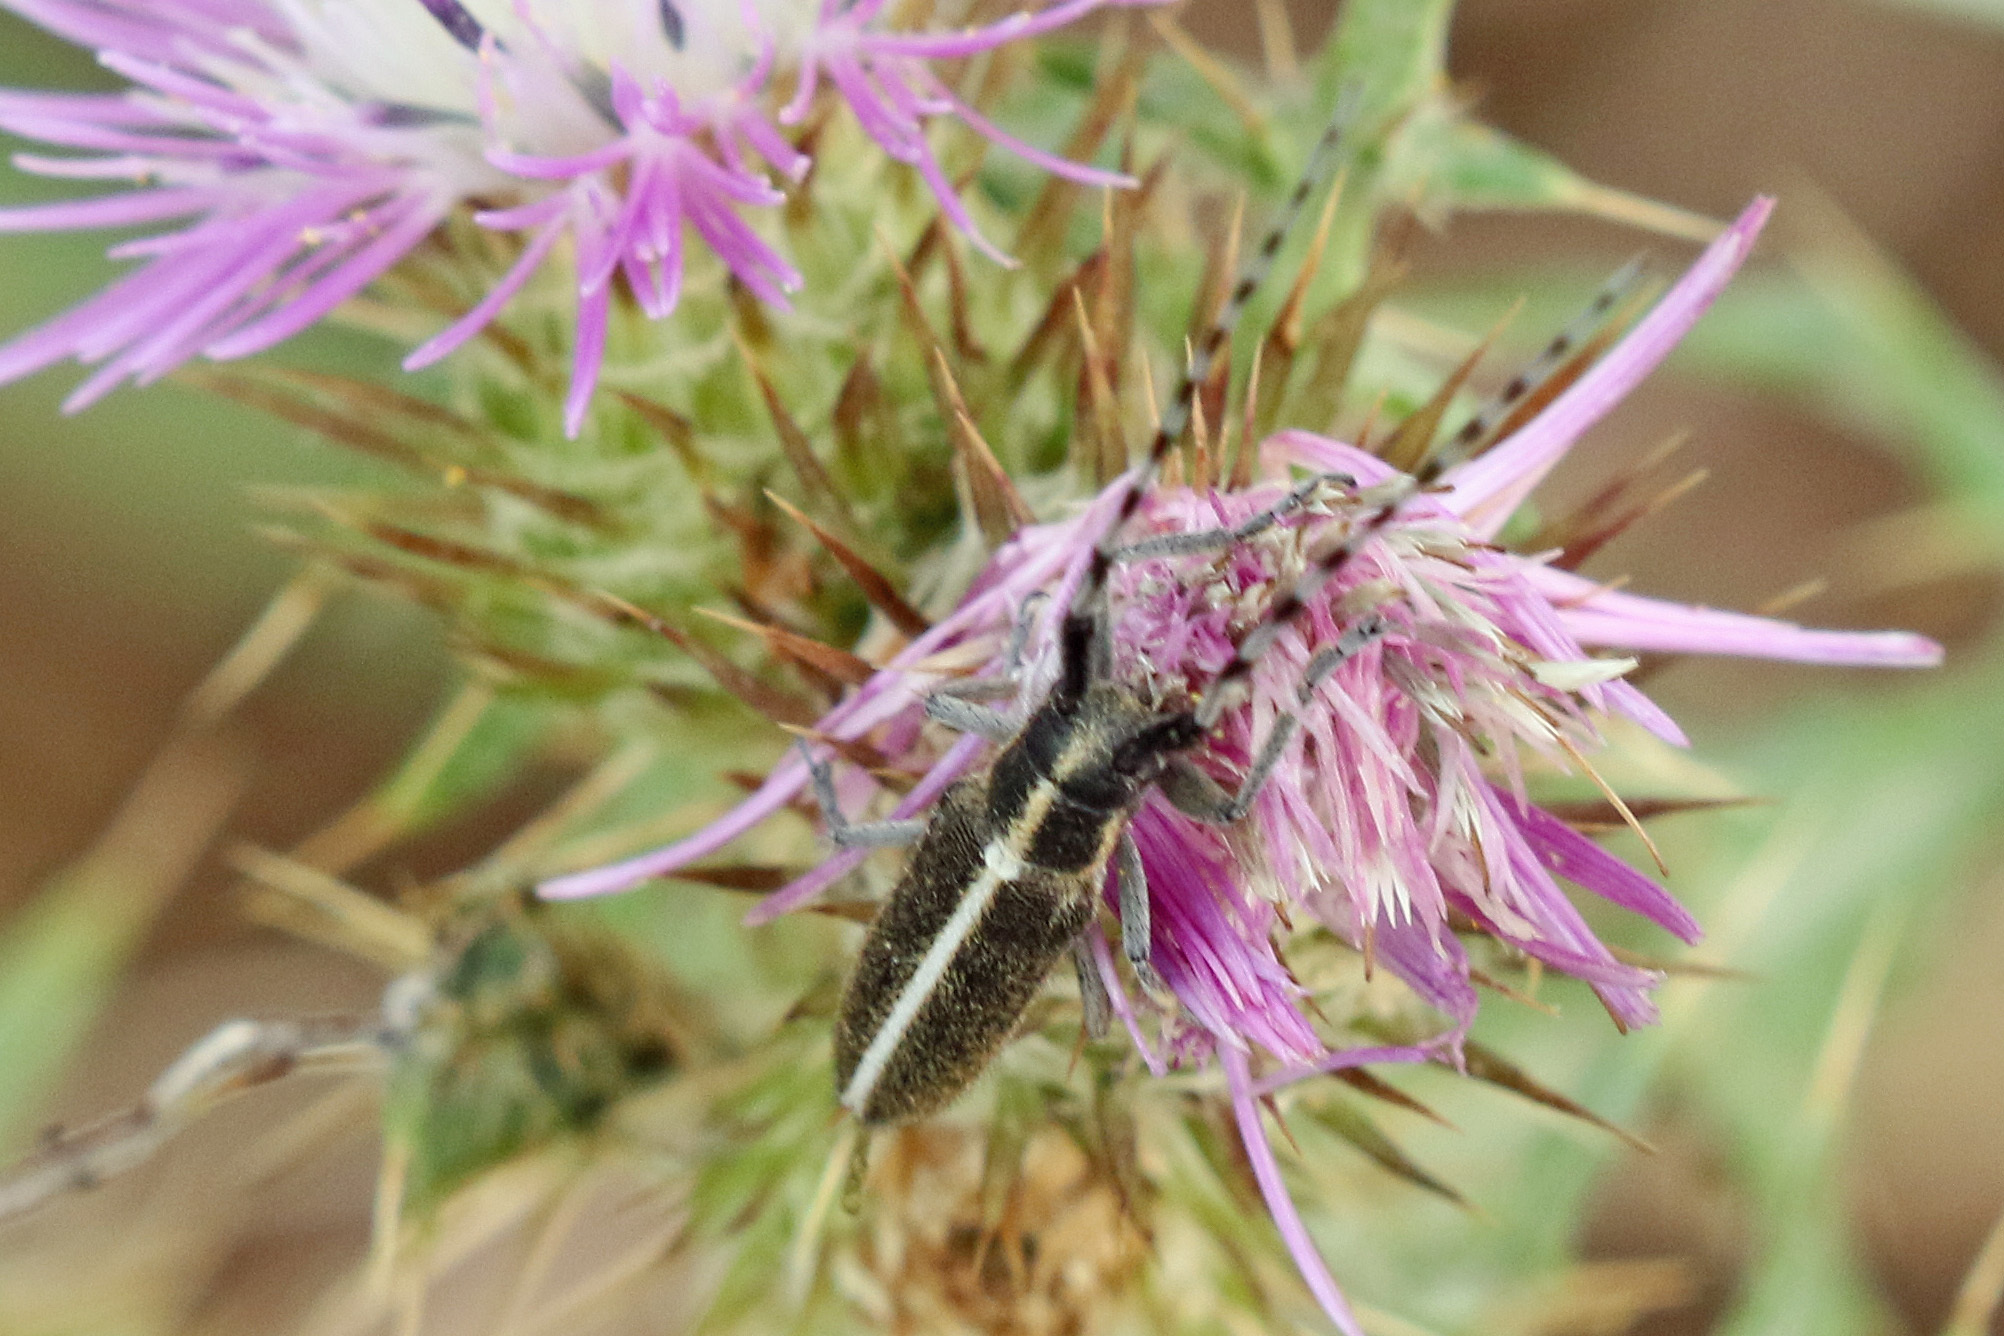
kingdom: Animalia
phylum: Arthropoda
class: Insecta
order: Coleoptera
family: Cerambycidae
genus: Agapanthia
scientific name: Agapanthia suturalis
